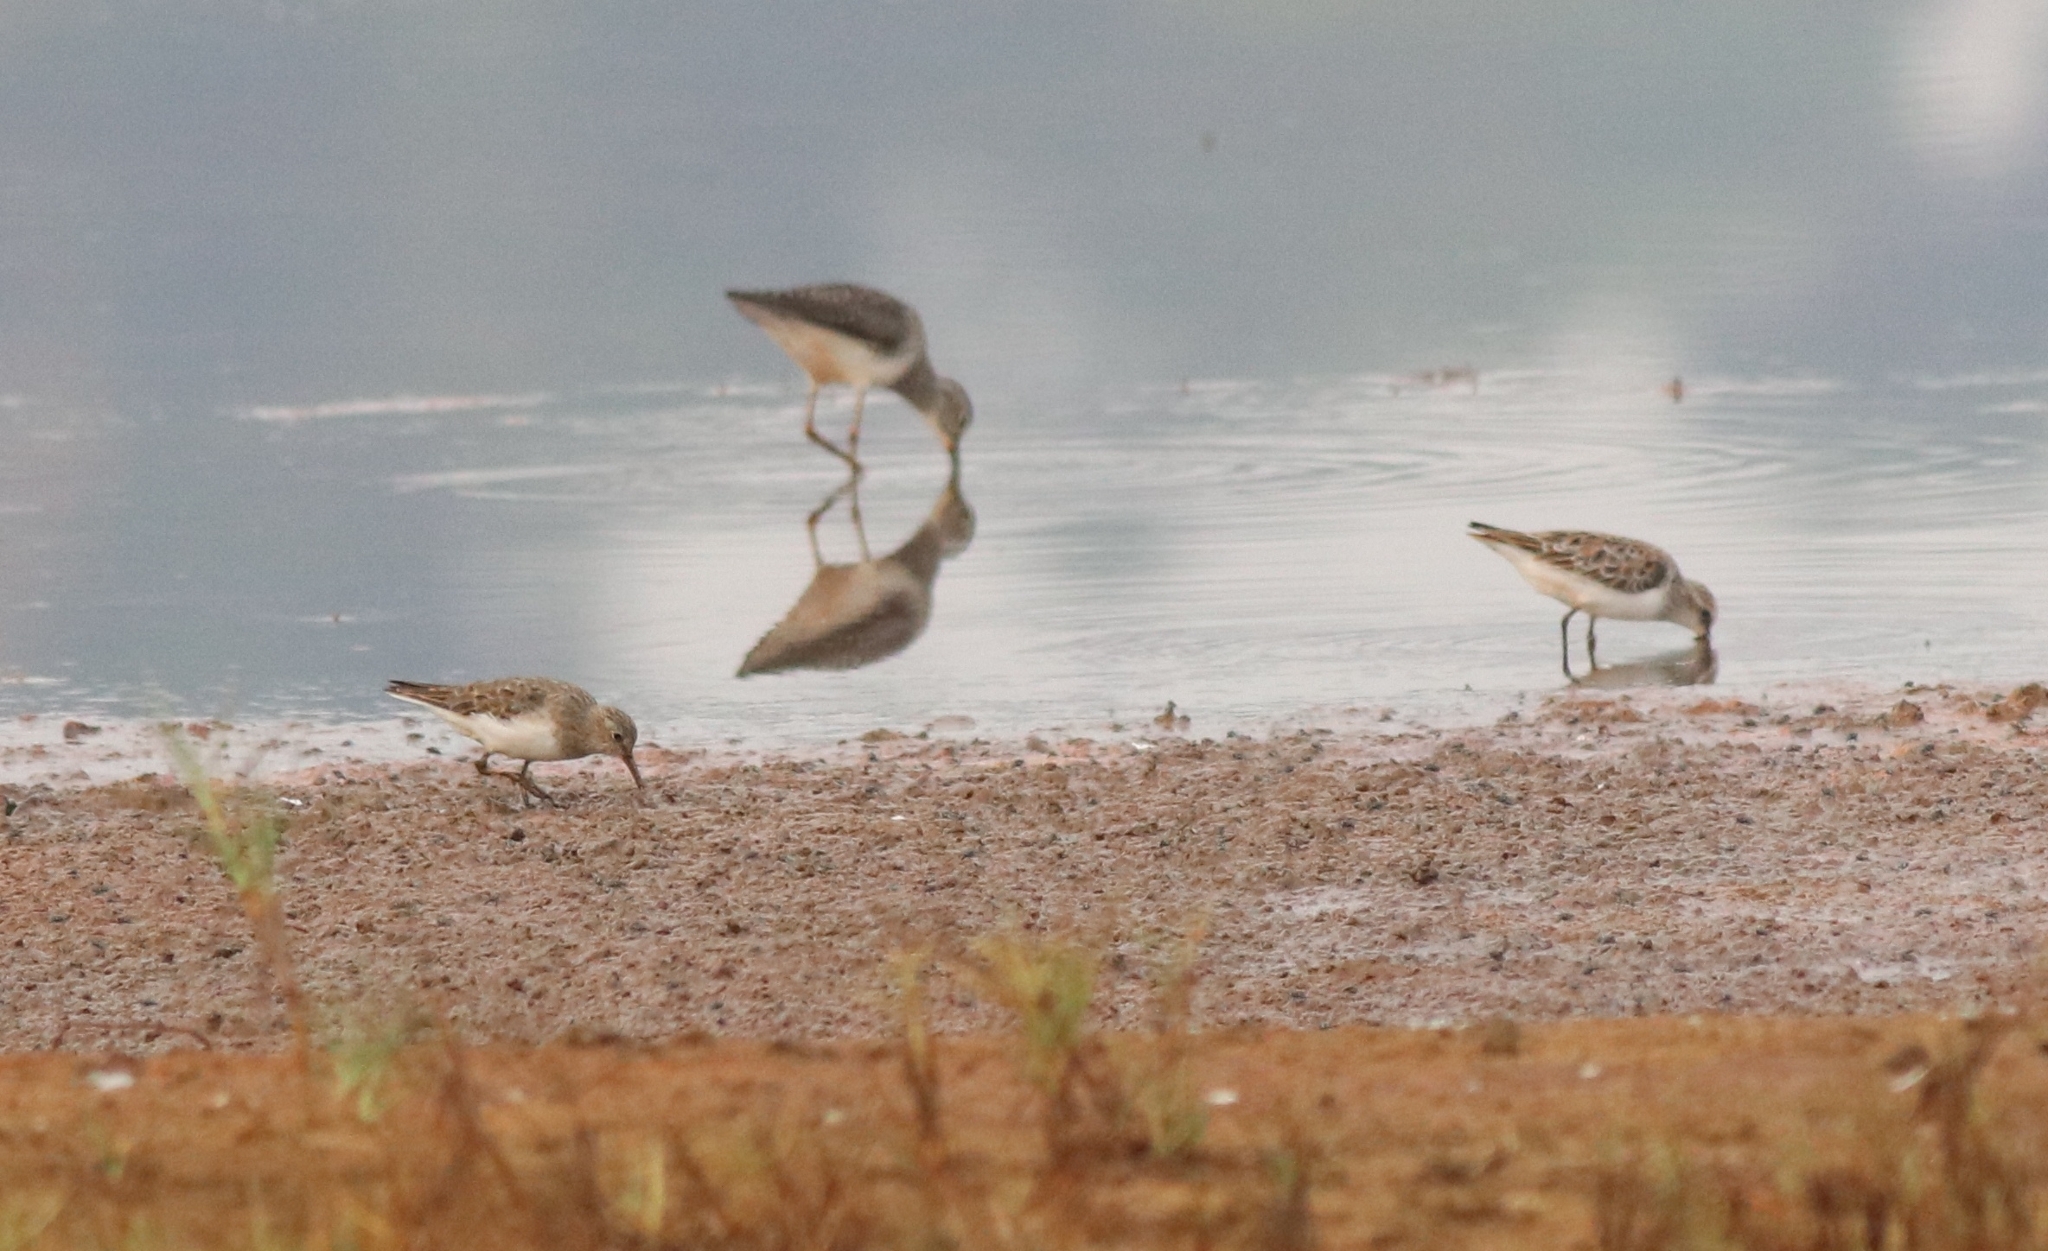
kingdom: Animalia
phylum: Chordata
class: Aves
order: Charadriiformes
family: Scolopacidae
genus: Calidris
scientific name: Calidris minuta
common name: Little stint
